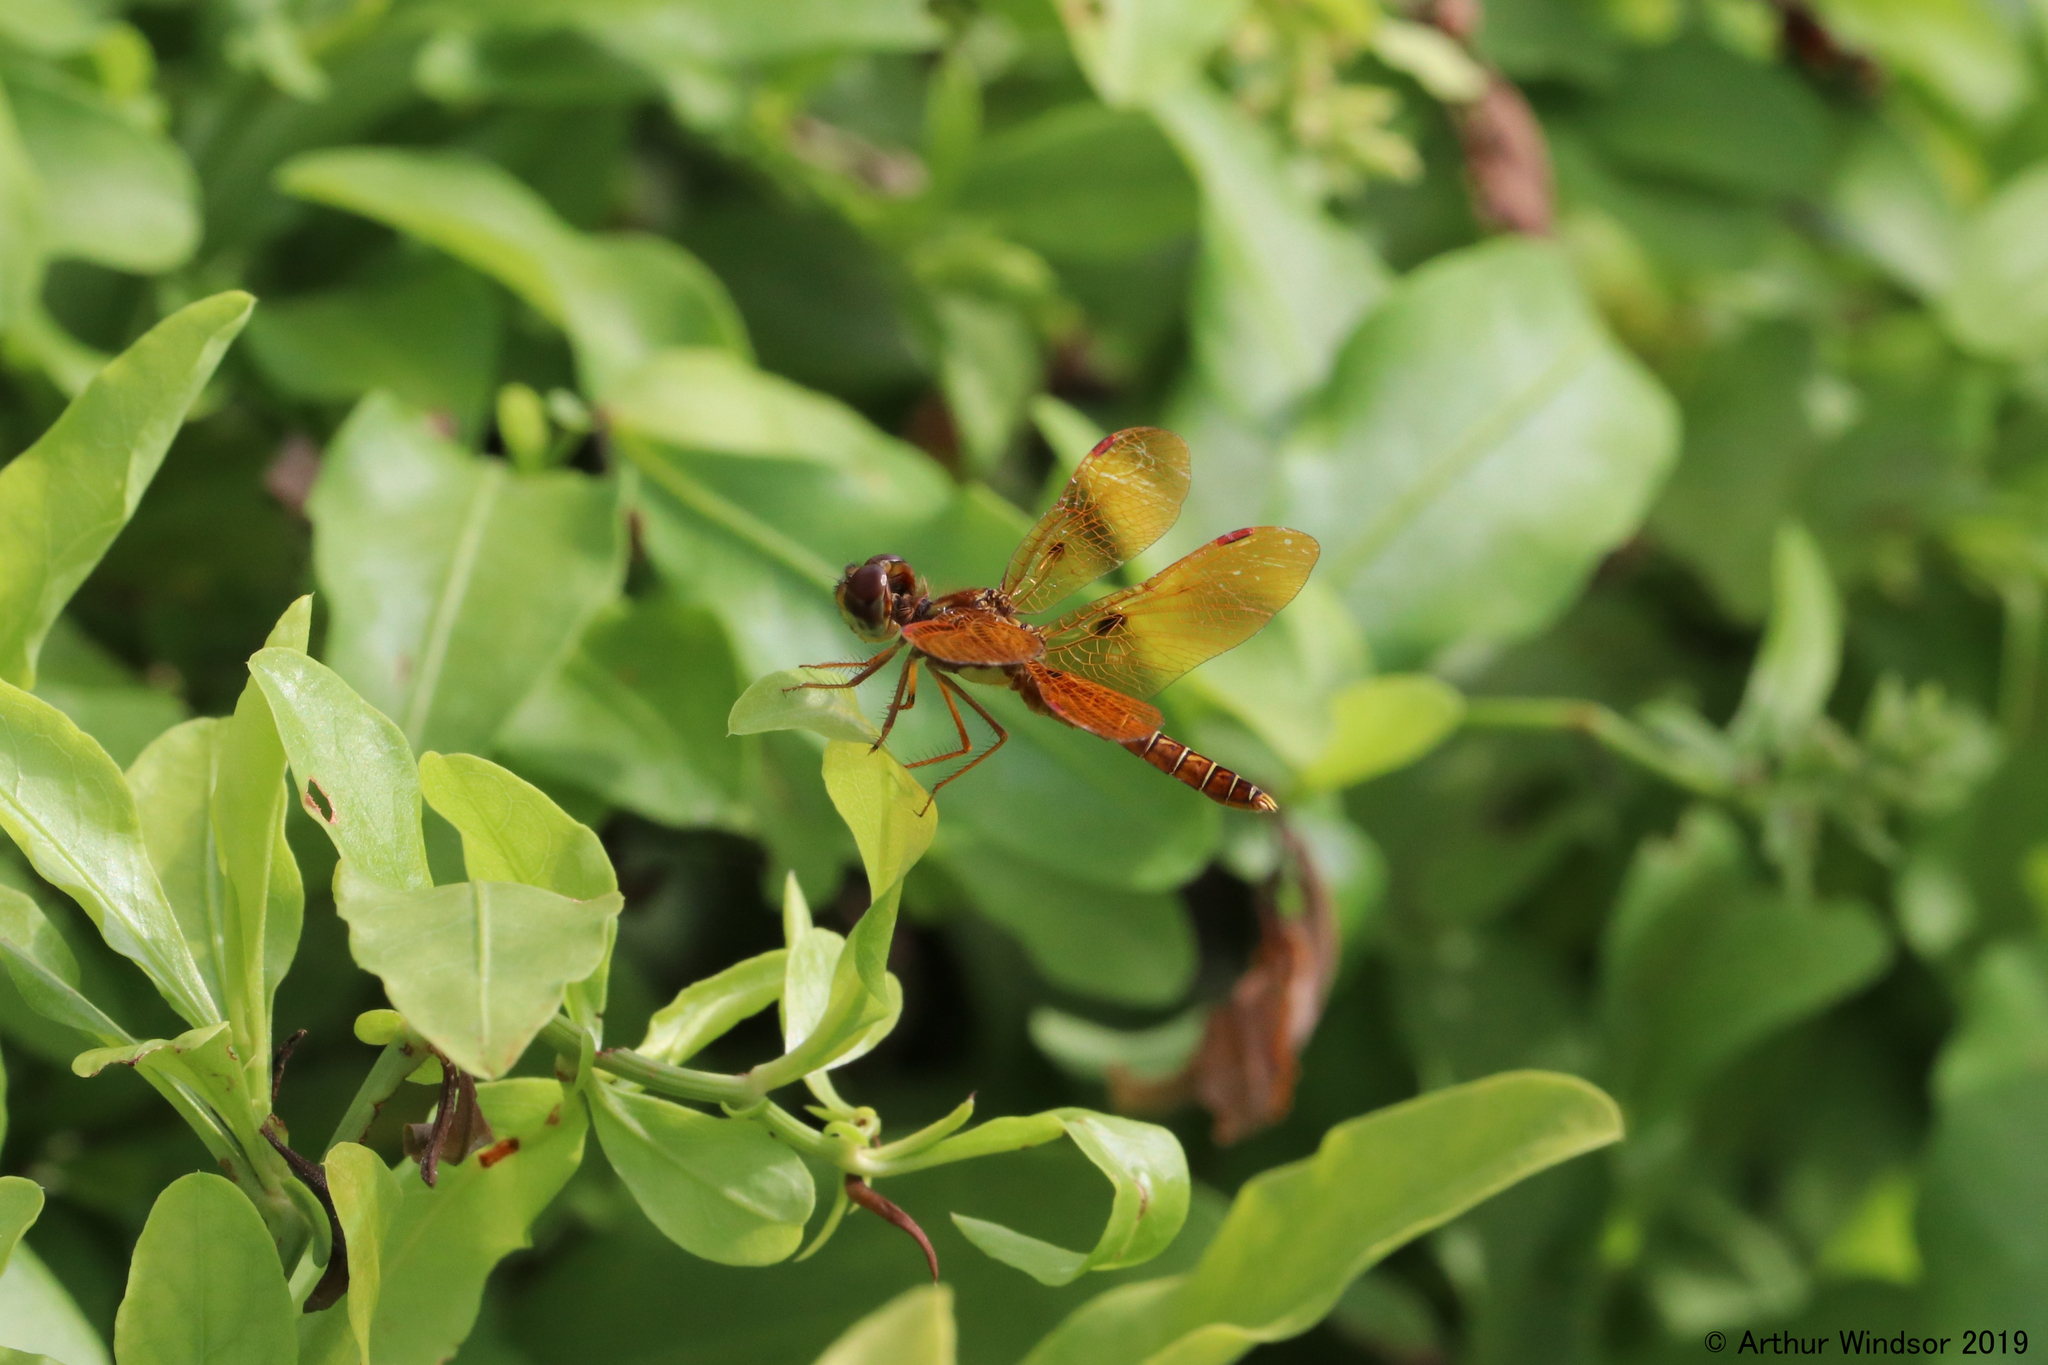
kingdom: Animalia
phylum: Arthropoda
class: Insecta
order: Odonata
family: Libellulidae
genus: Perithemis
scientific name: Perithemis tenera
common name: Eastern amberwing
